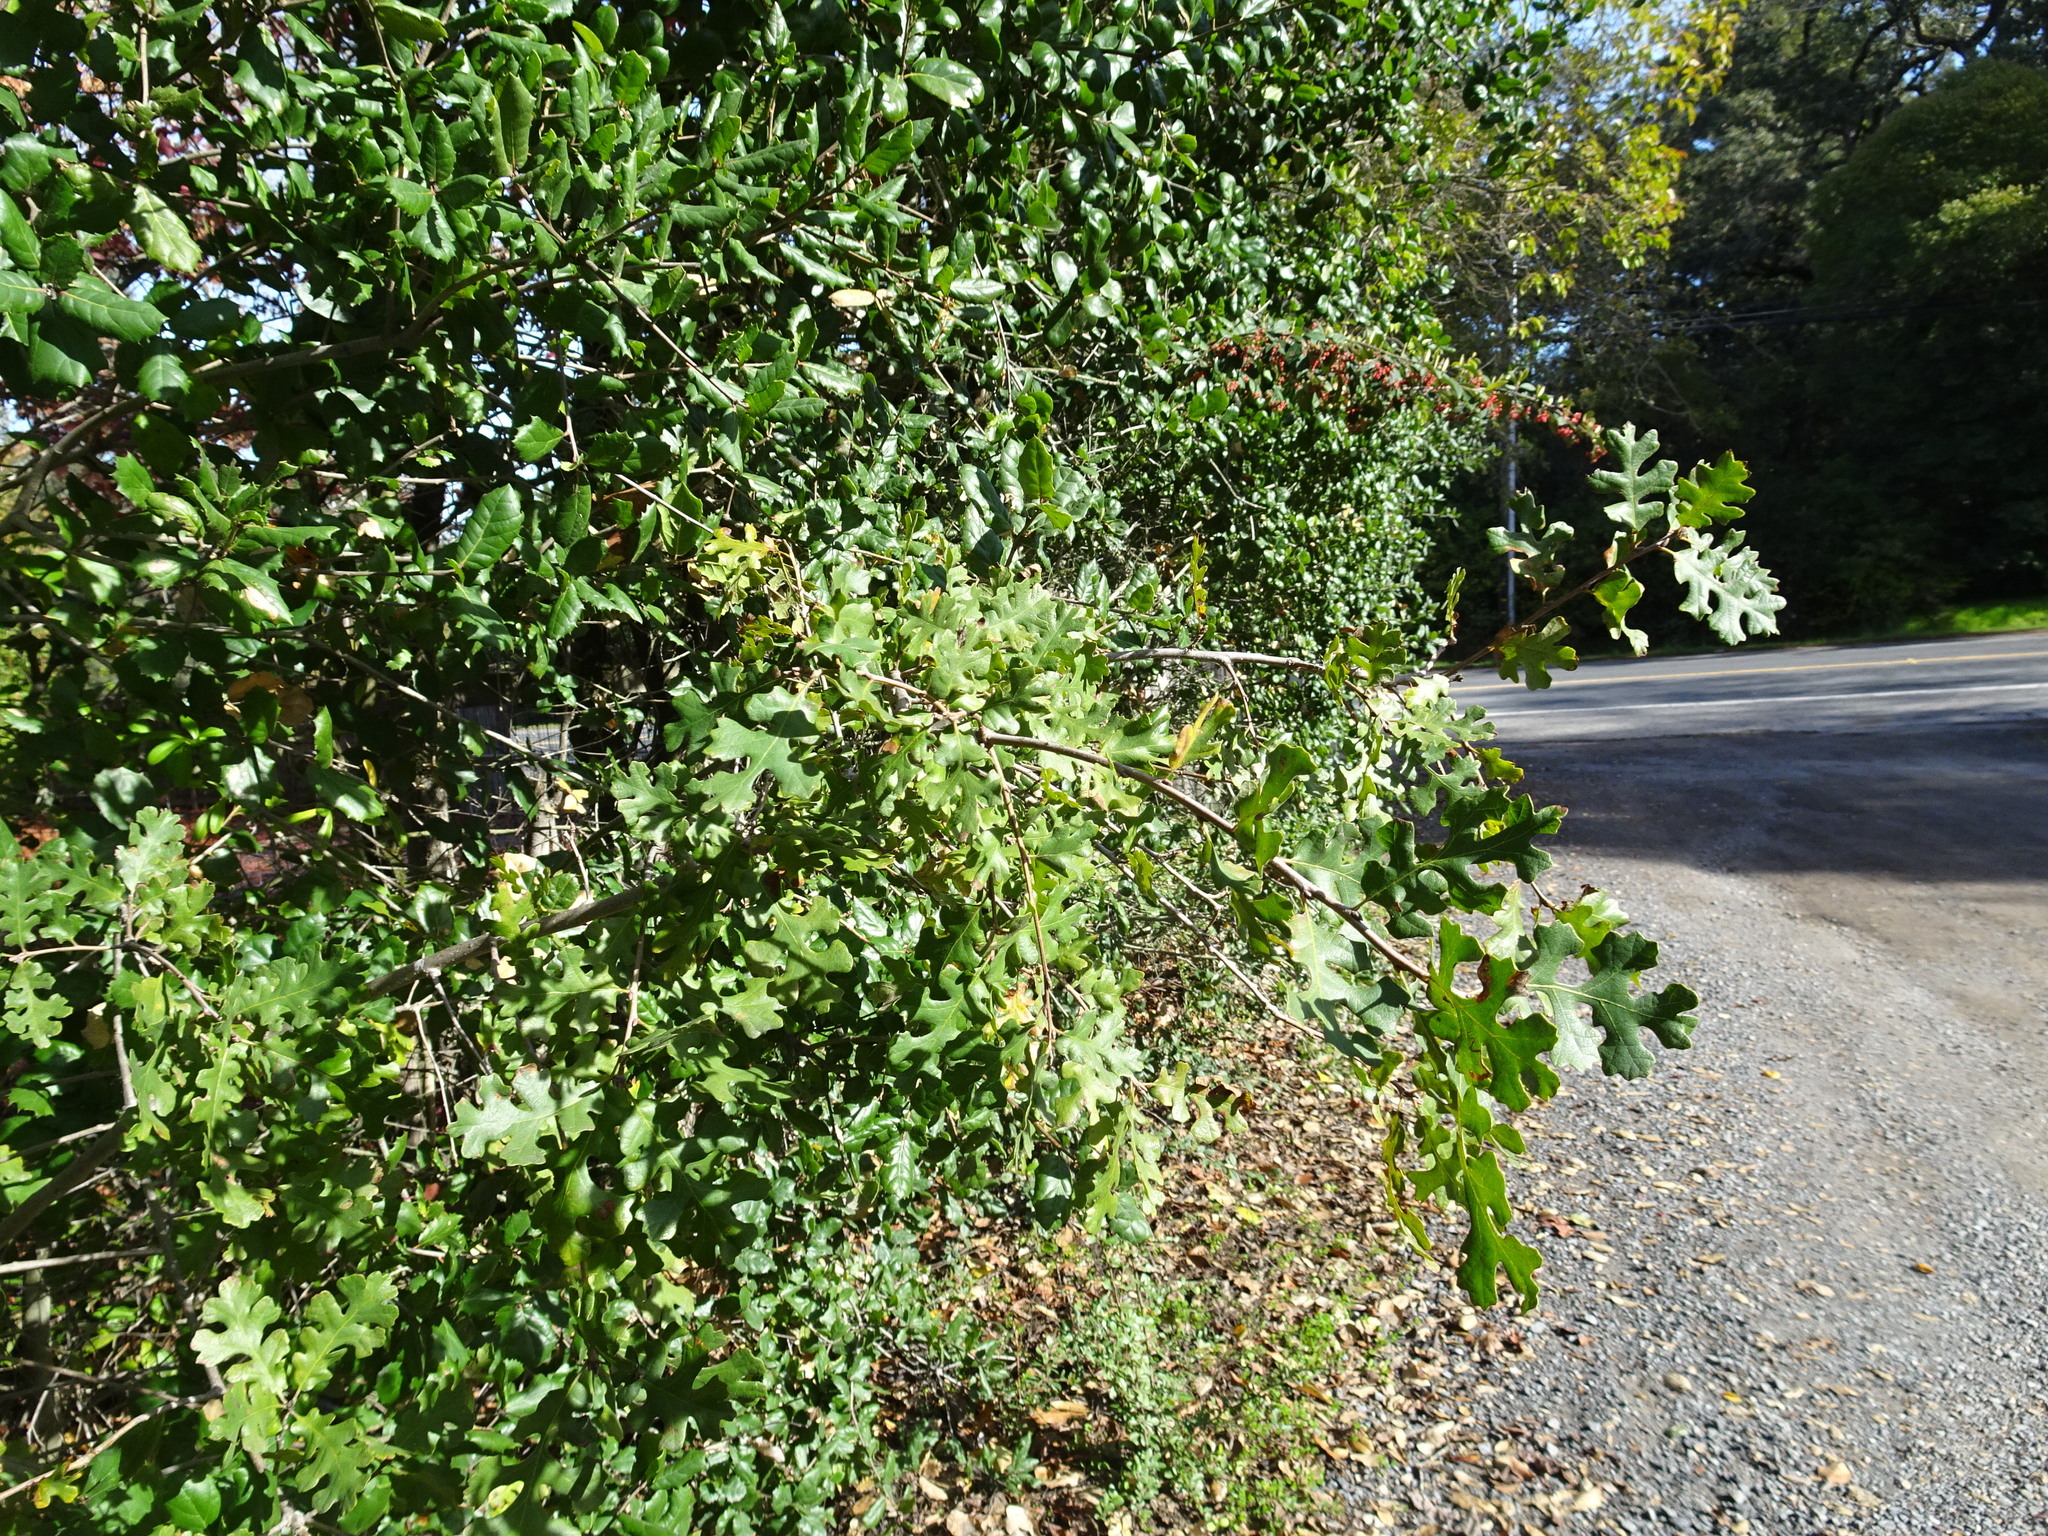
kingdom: Plantae
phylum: Tracheophyta
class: Magnoliopsida
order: Fagales
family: Fagaceae
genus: Quercus
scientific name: Quercus lobata
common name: Valley oak
